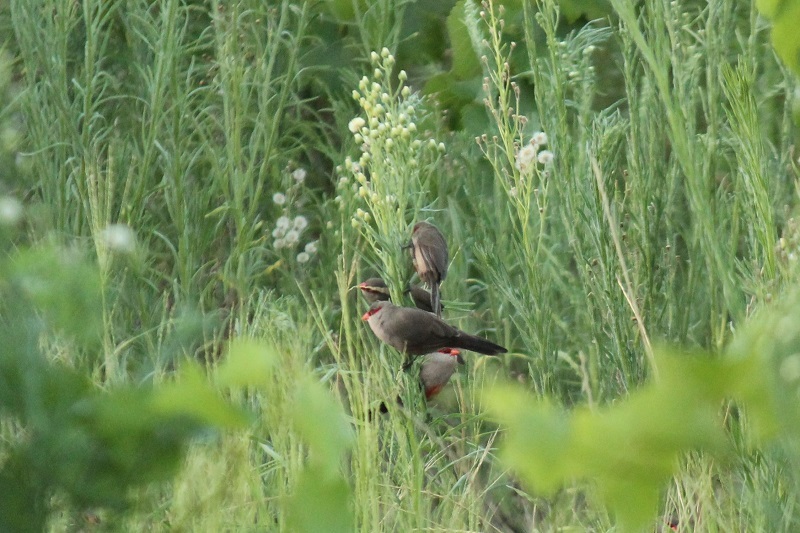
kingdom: Animalia
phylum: Chordata
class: Aves
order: Passeriformes
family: Estrildidae
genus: Estrilda
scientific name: Estrilda astrild
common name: Common waxbill
